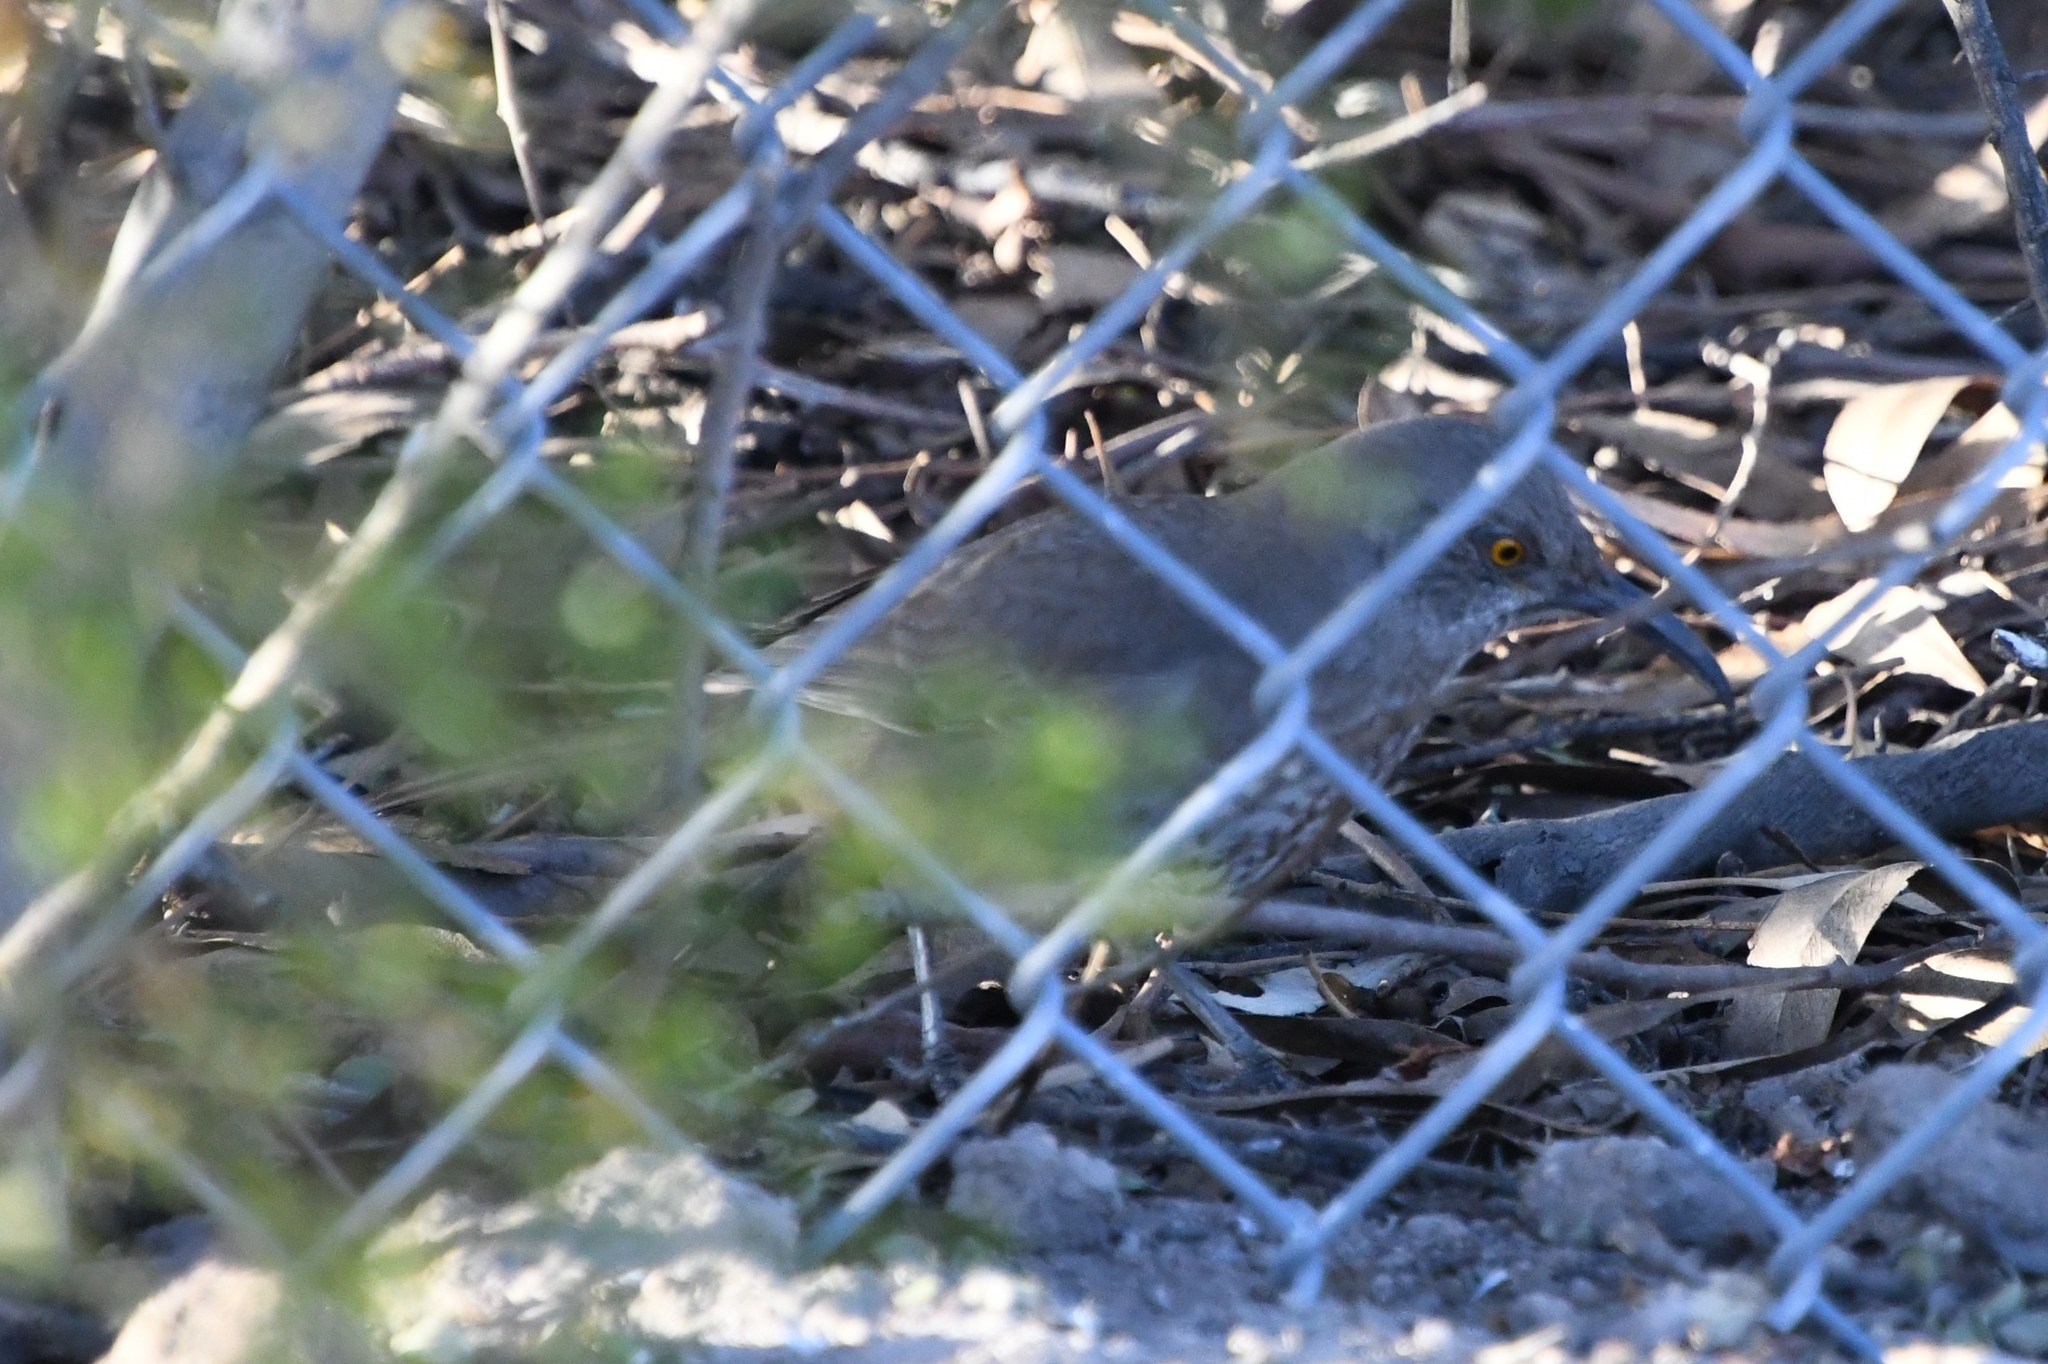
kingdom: Animalia
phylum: Chordata
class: Aves
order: Passeriformes
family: Mimidae
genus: Toxostoma
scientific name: Toxostoma curvirostre
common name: Curve-billed thrasher
